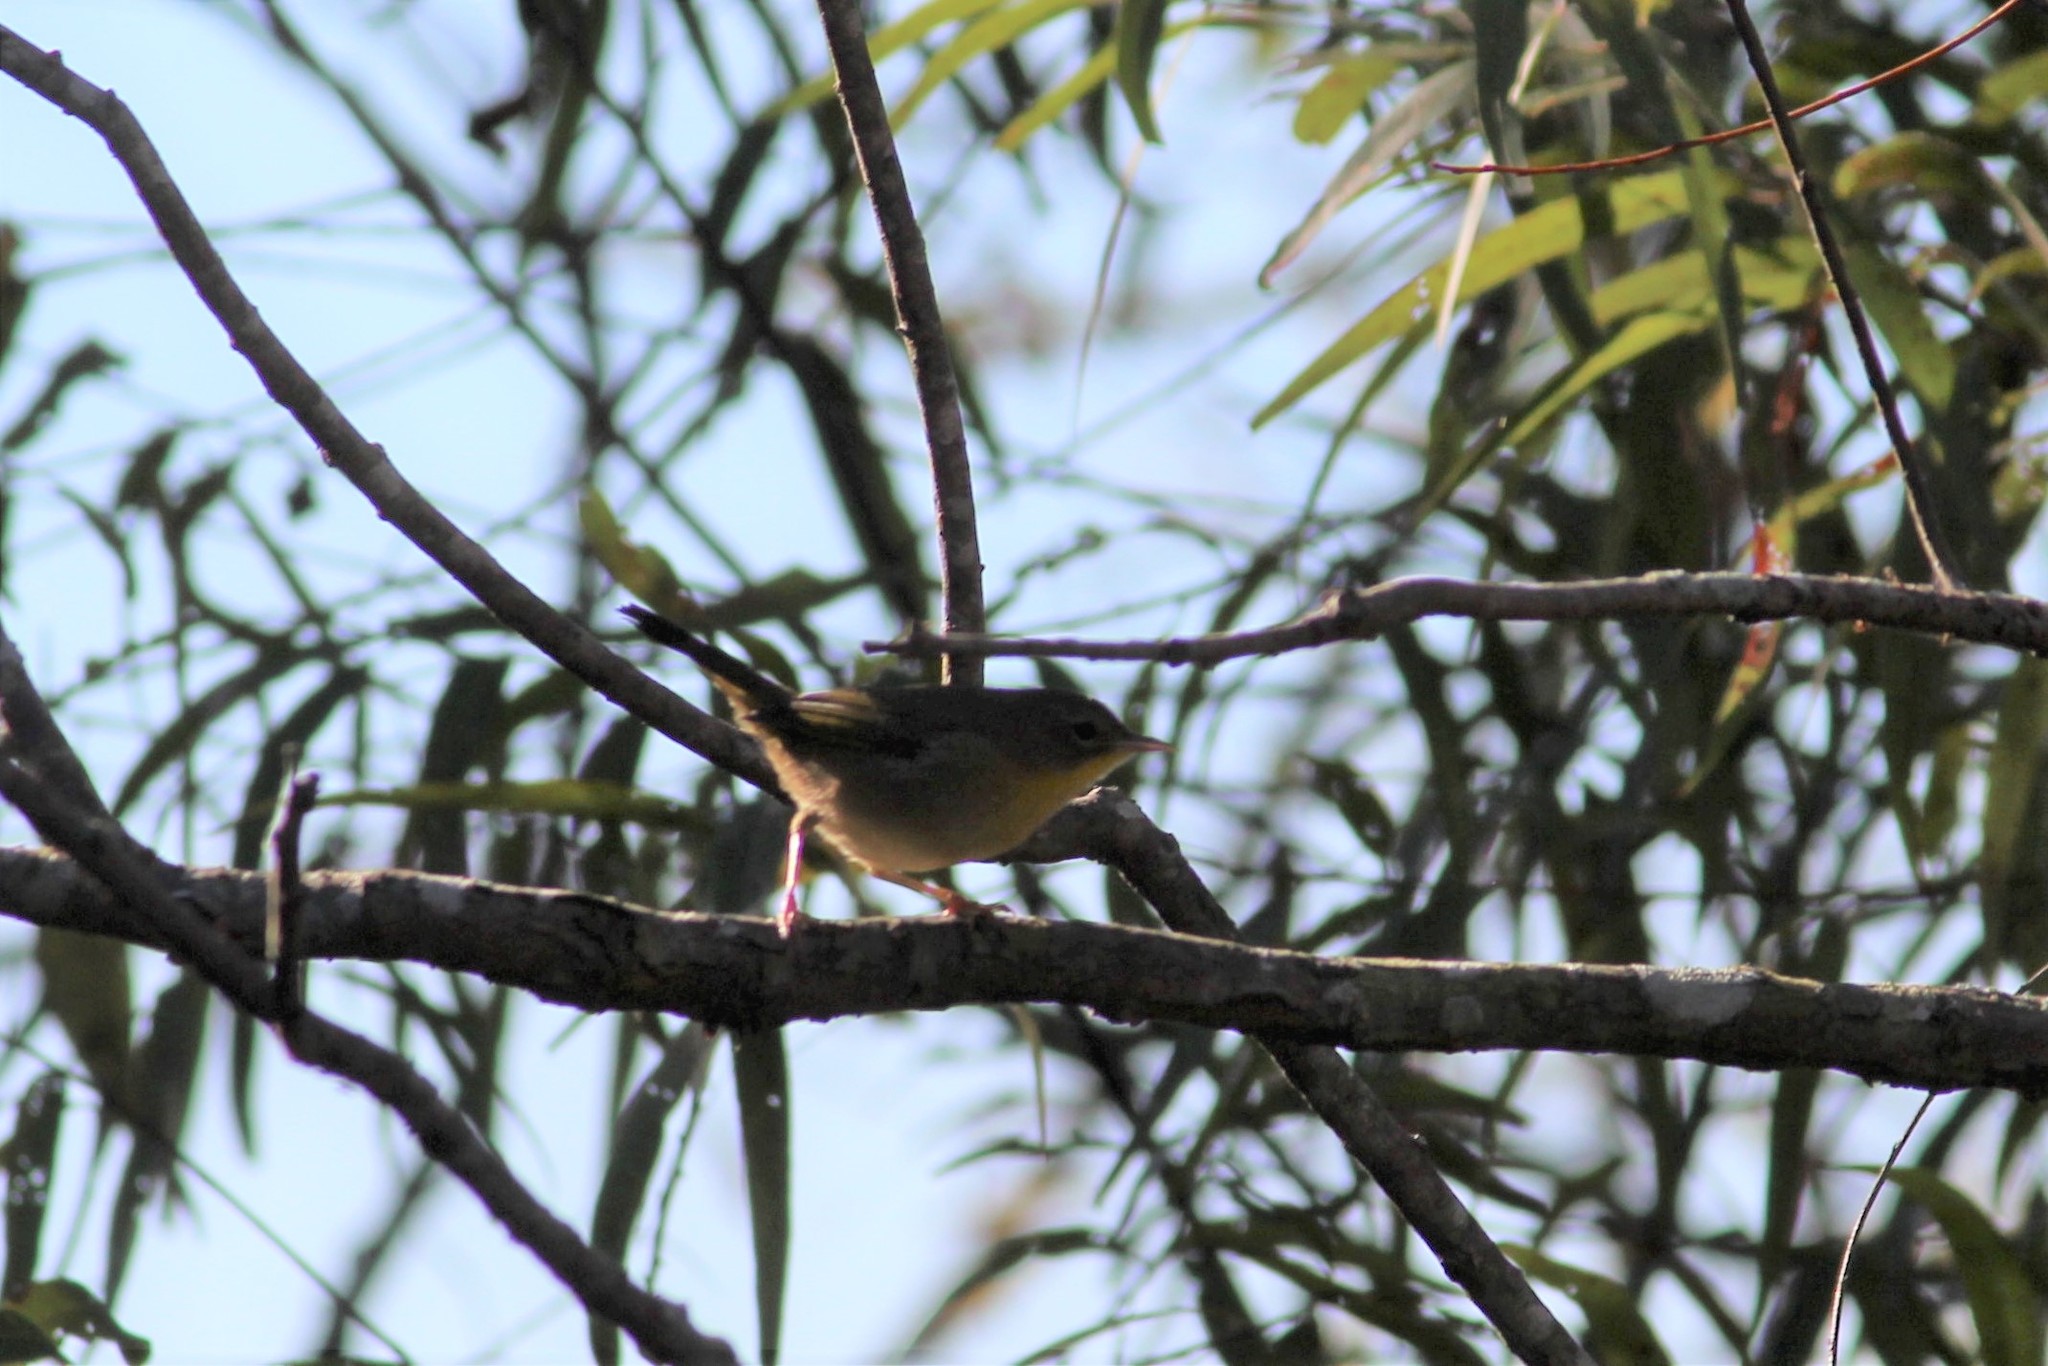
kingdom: Animalia
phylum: Chordata
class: Aves
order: Passeriformes
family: Parulidae
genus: Geothlypis
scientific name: Geothlypis trichas
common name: Common yellowthroat
